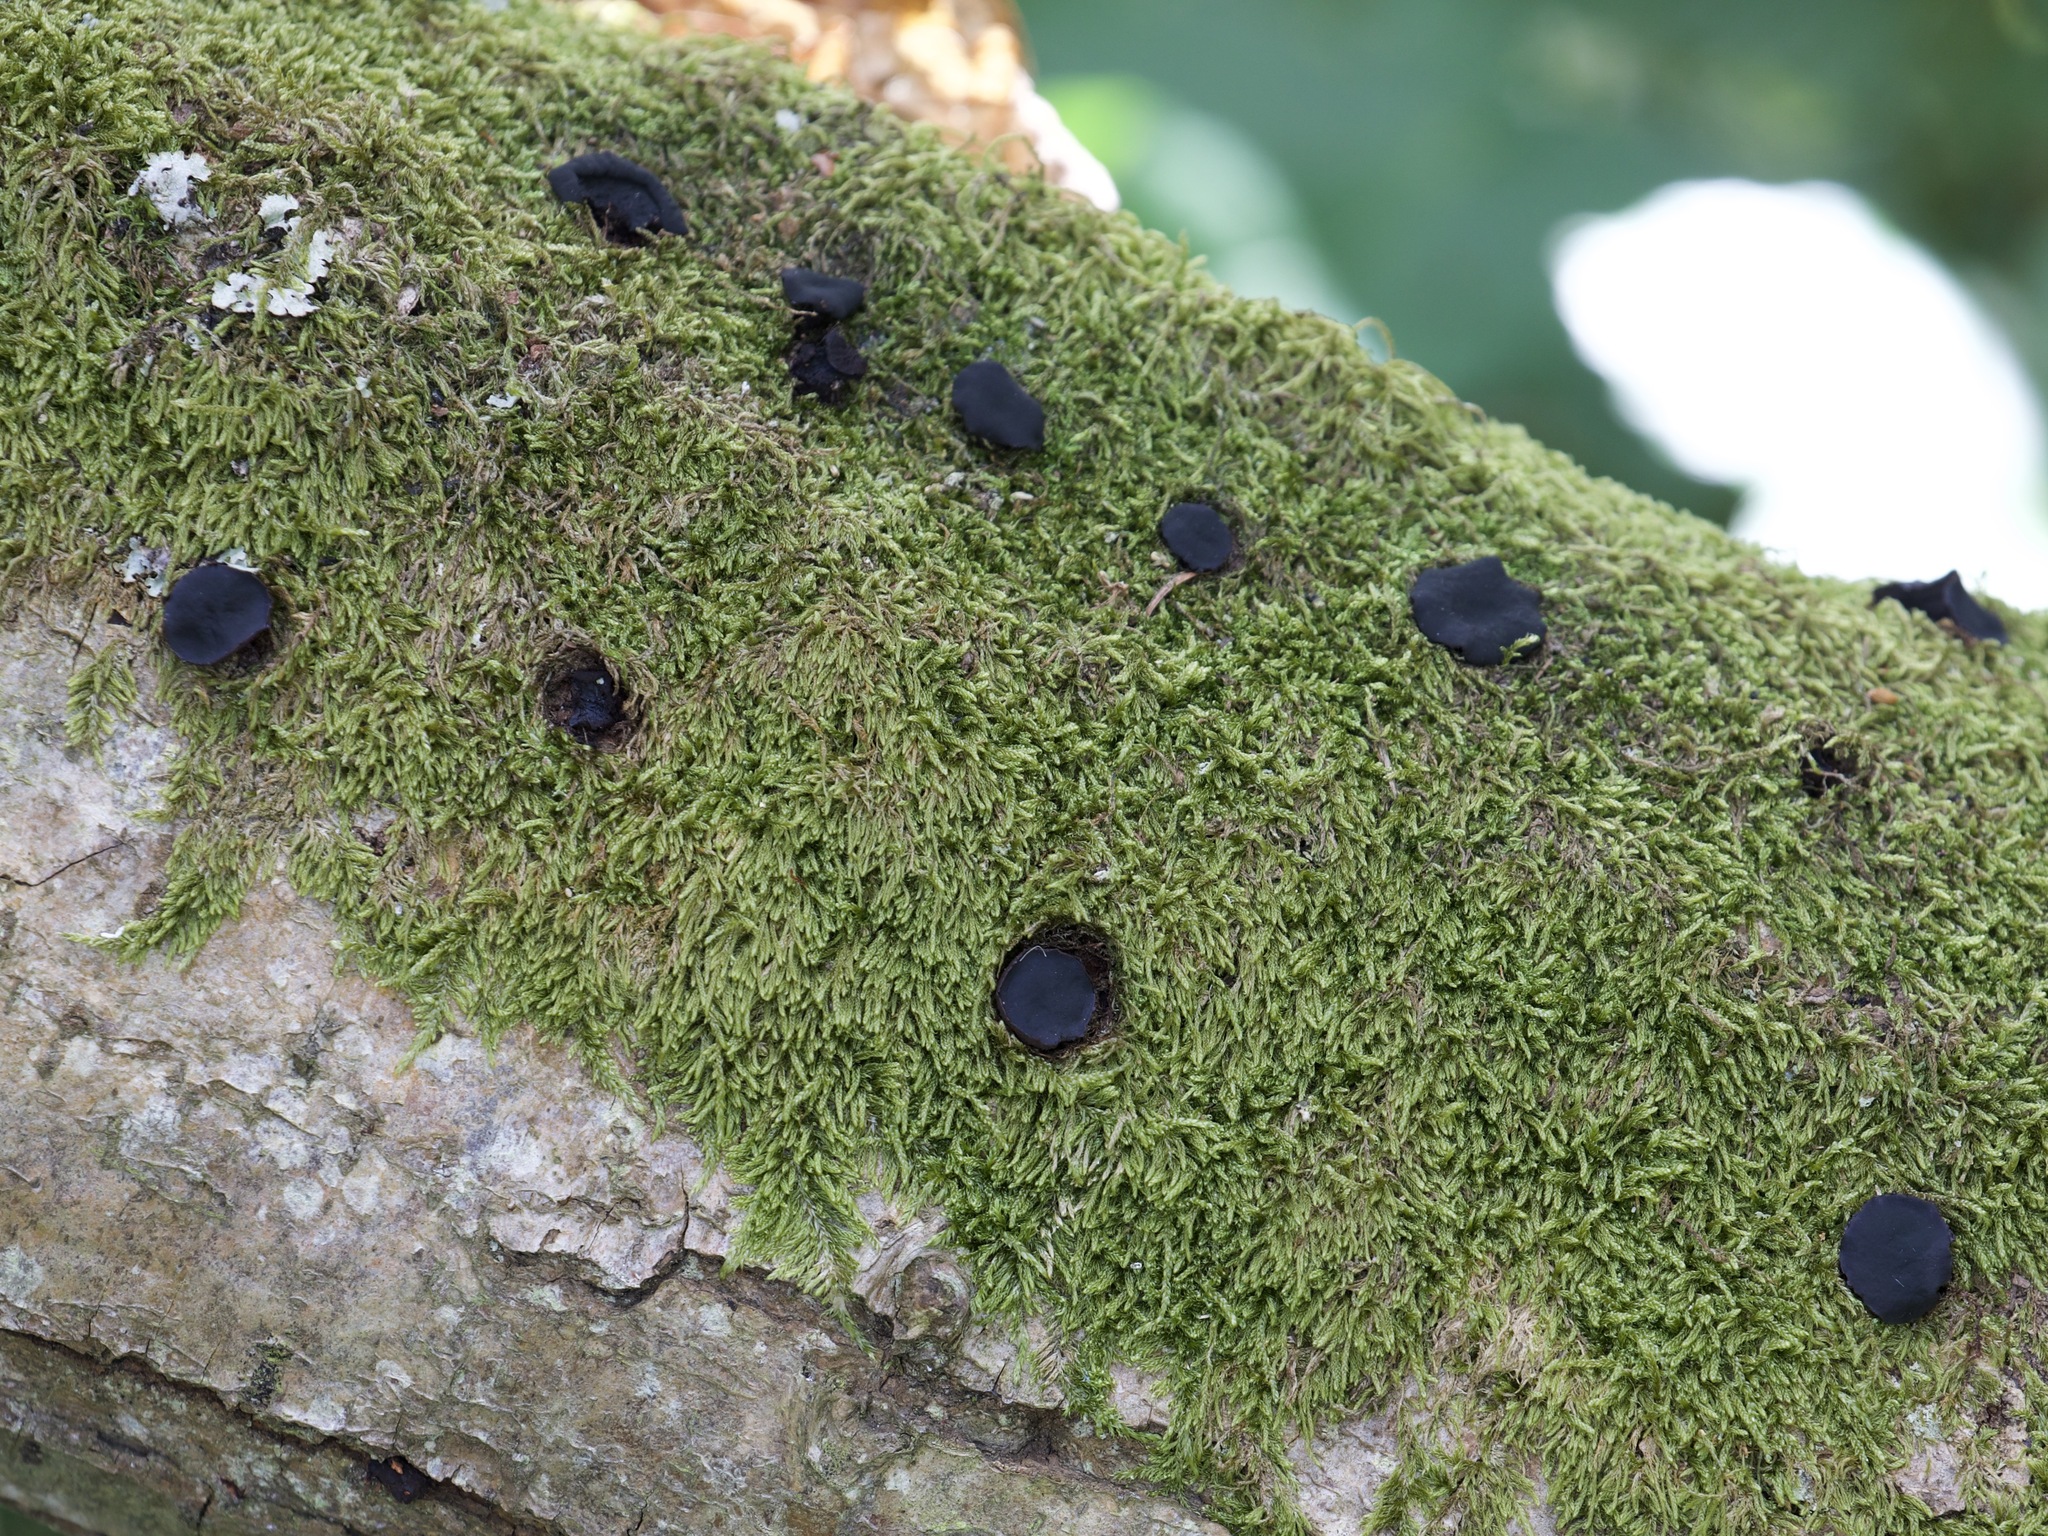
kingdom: Fungi
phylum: Ascomycota
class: Leotiomycetes
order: Phacidiales
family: Phacidiaceae
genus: Bulgaria
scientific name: Bulgaria inquinans
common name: Black bulgar
